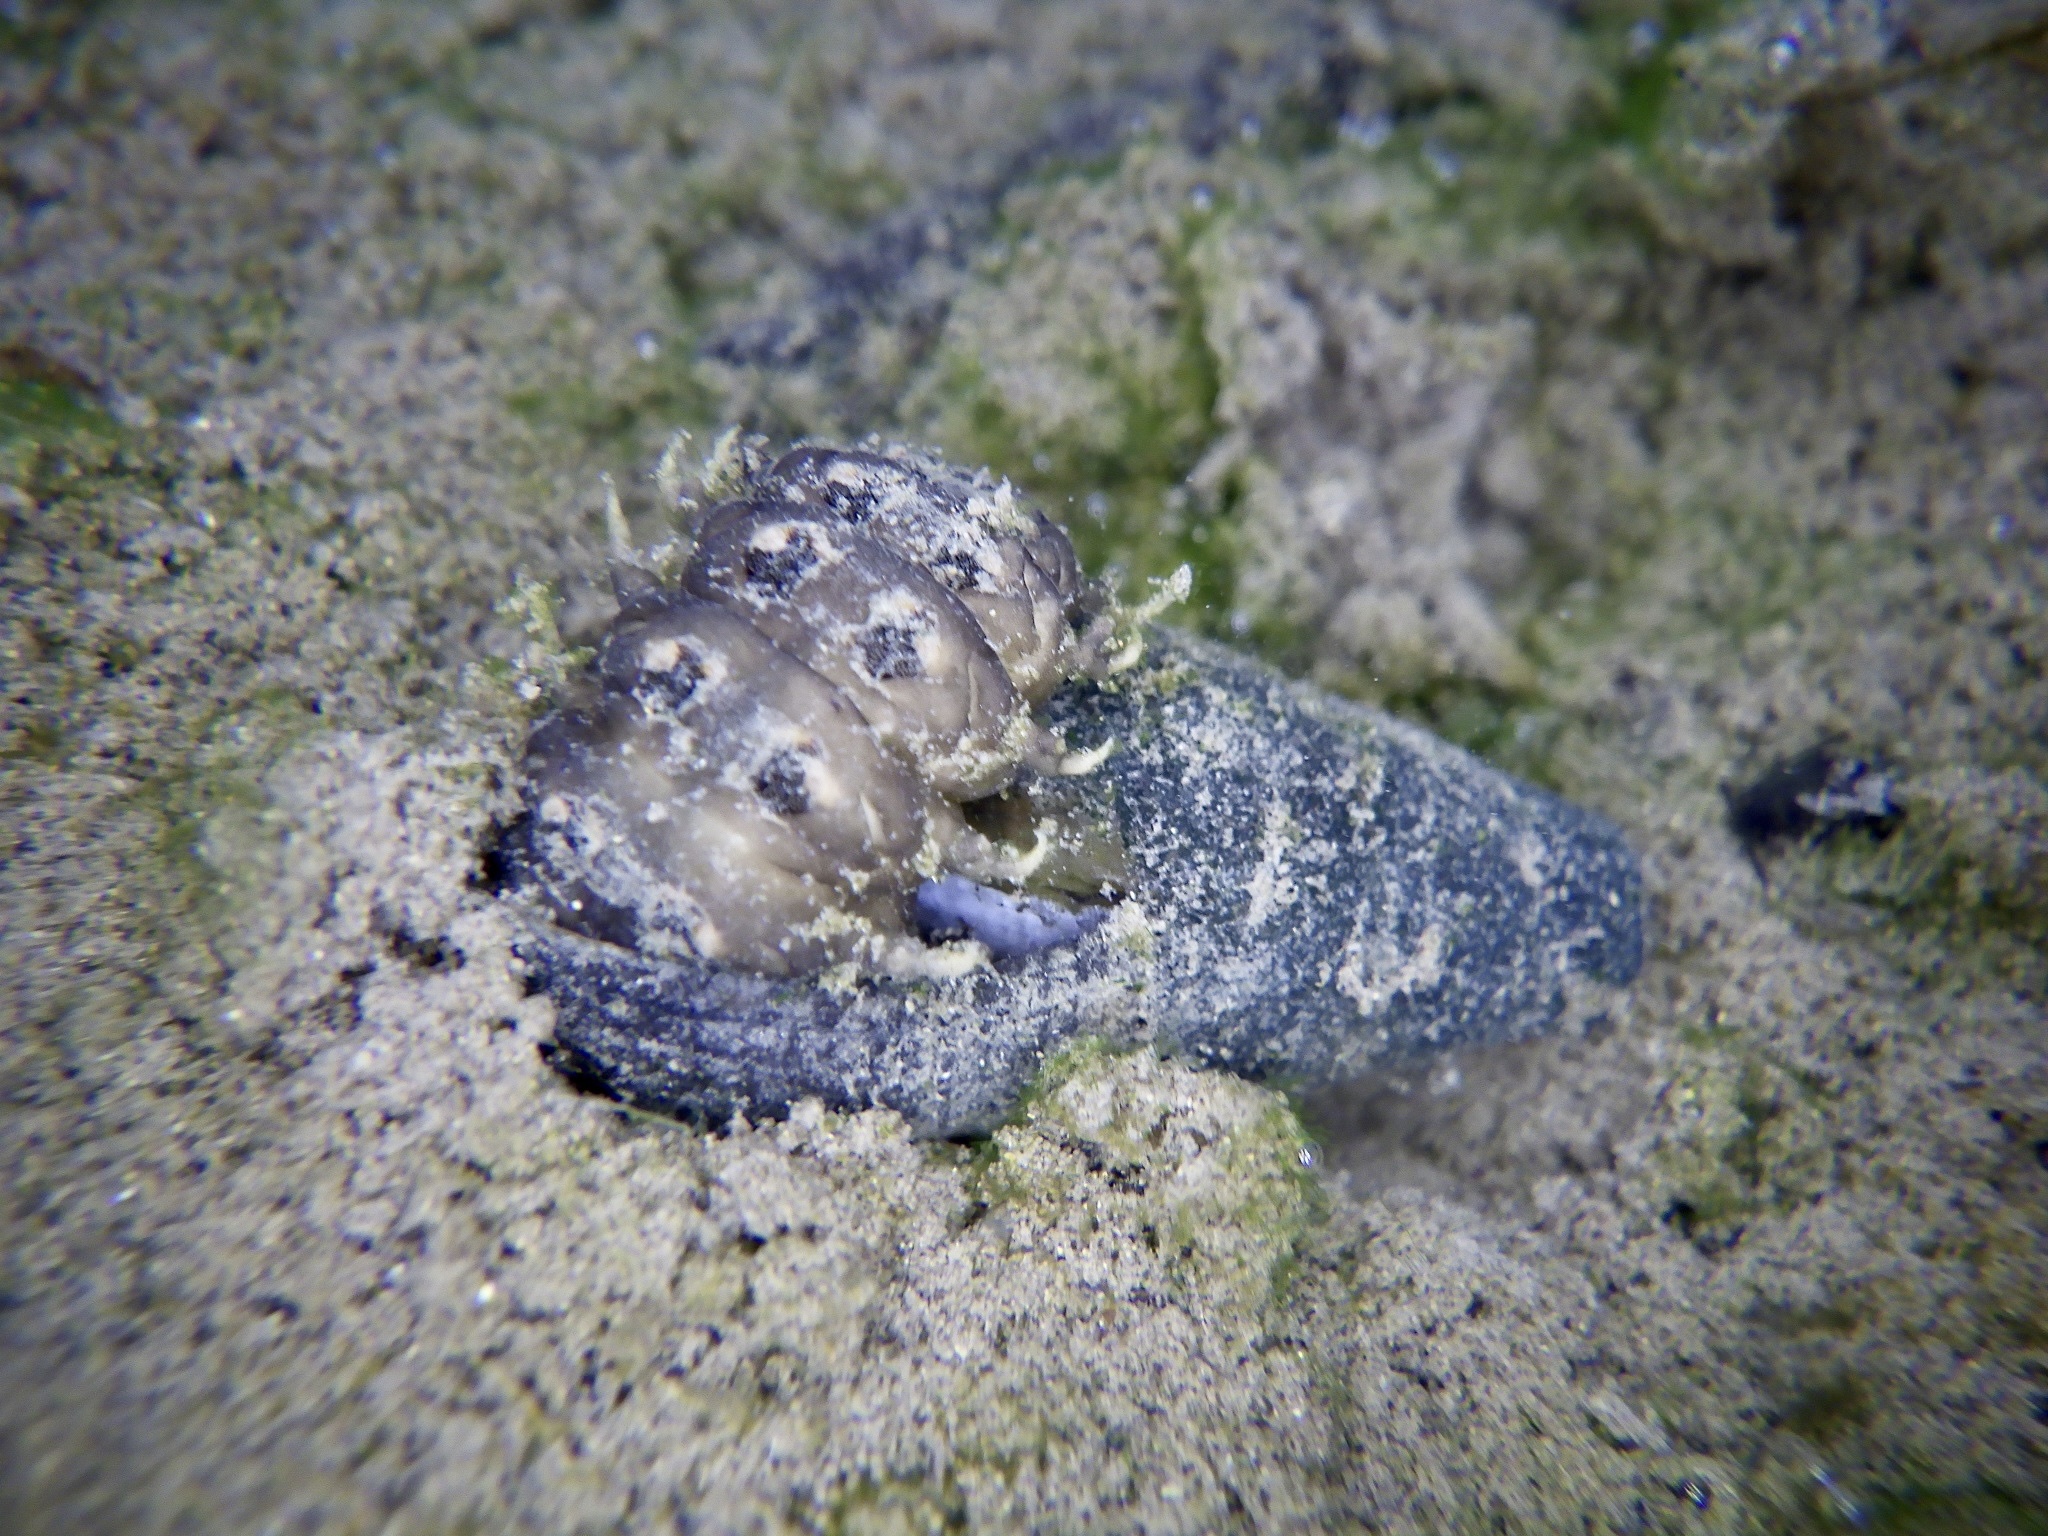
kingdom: Animalia
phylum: Arthropoda
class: Insecta
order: Coleoptera
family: Lampyridae
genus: Luciola
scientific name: Luciola cruciata
